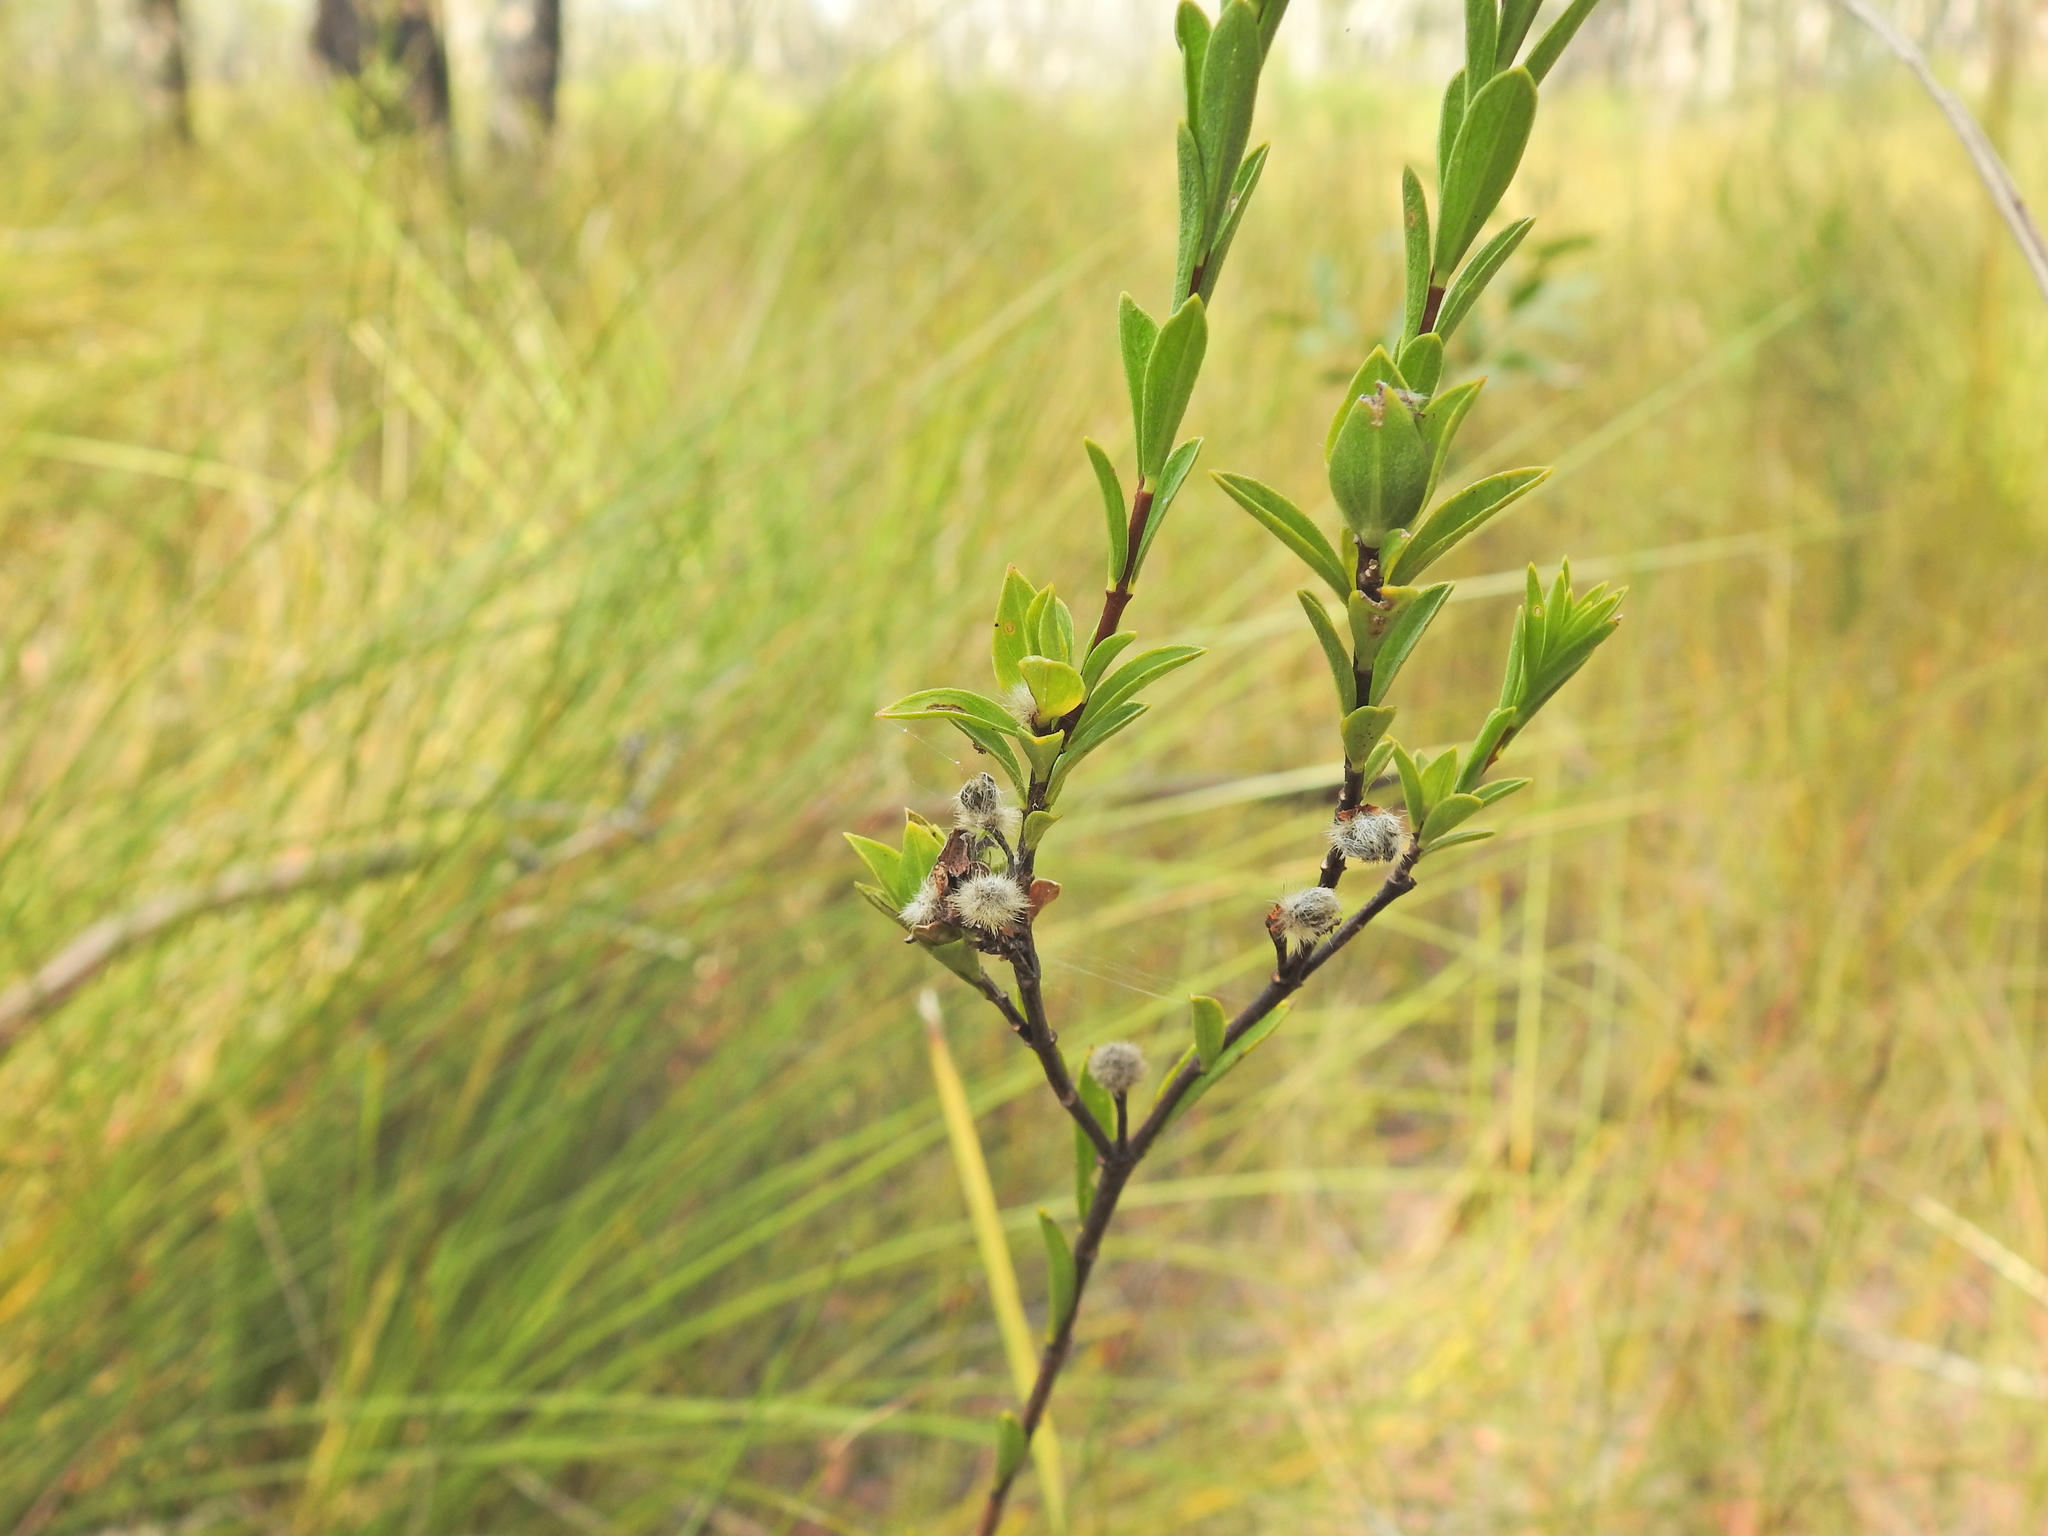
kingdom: Plantae
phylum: Tracheophyta
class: Magnoliopsida
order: Malvales
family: Thymelaeaceae
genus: Pimelea
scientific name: Pimelea linifolia
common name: Queen-of-the-bush
